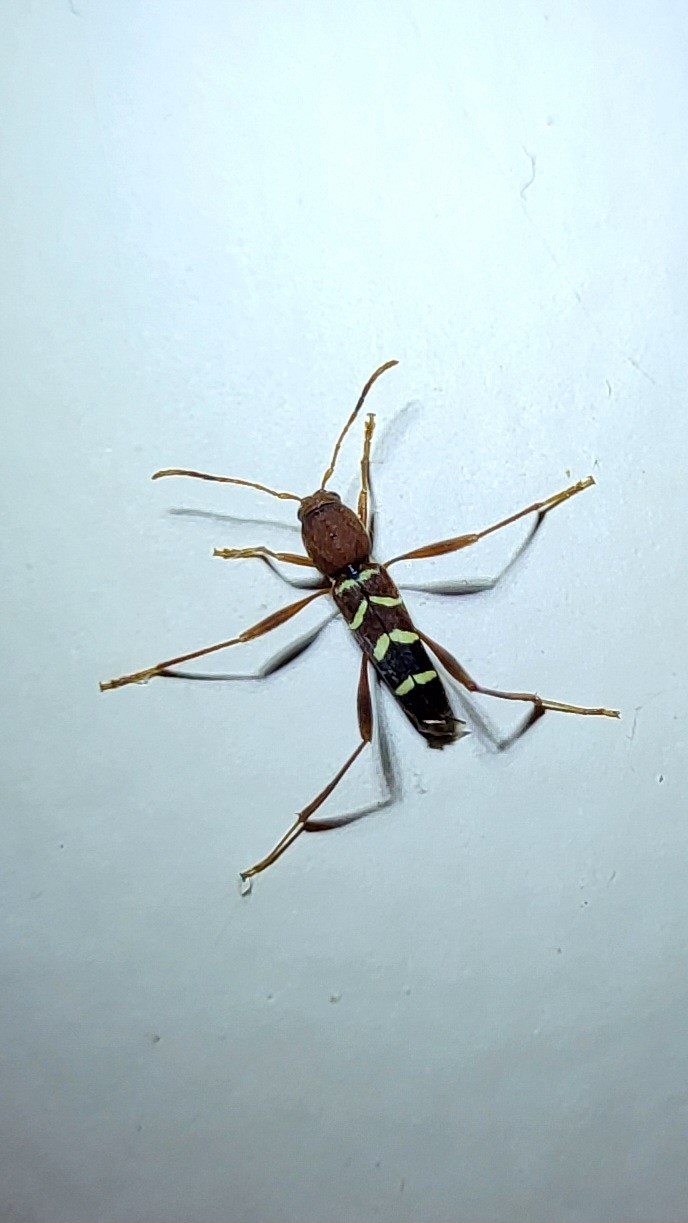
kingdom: Animalia
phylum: Arthropoda
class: Insecta
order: Coleoptera
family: Cerambycidae
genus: Neoclytus
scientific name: Neoclytus acuminatus
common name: Read-headed ash borer
